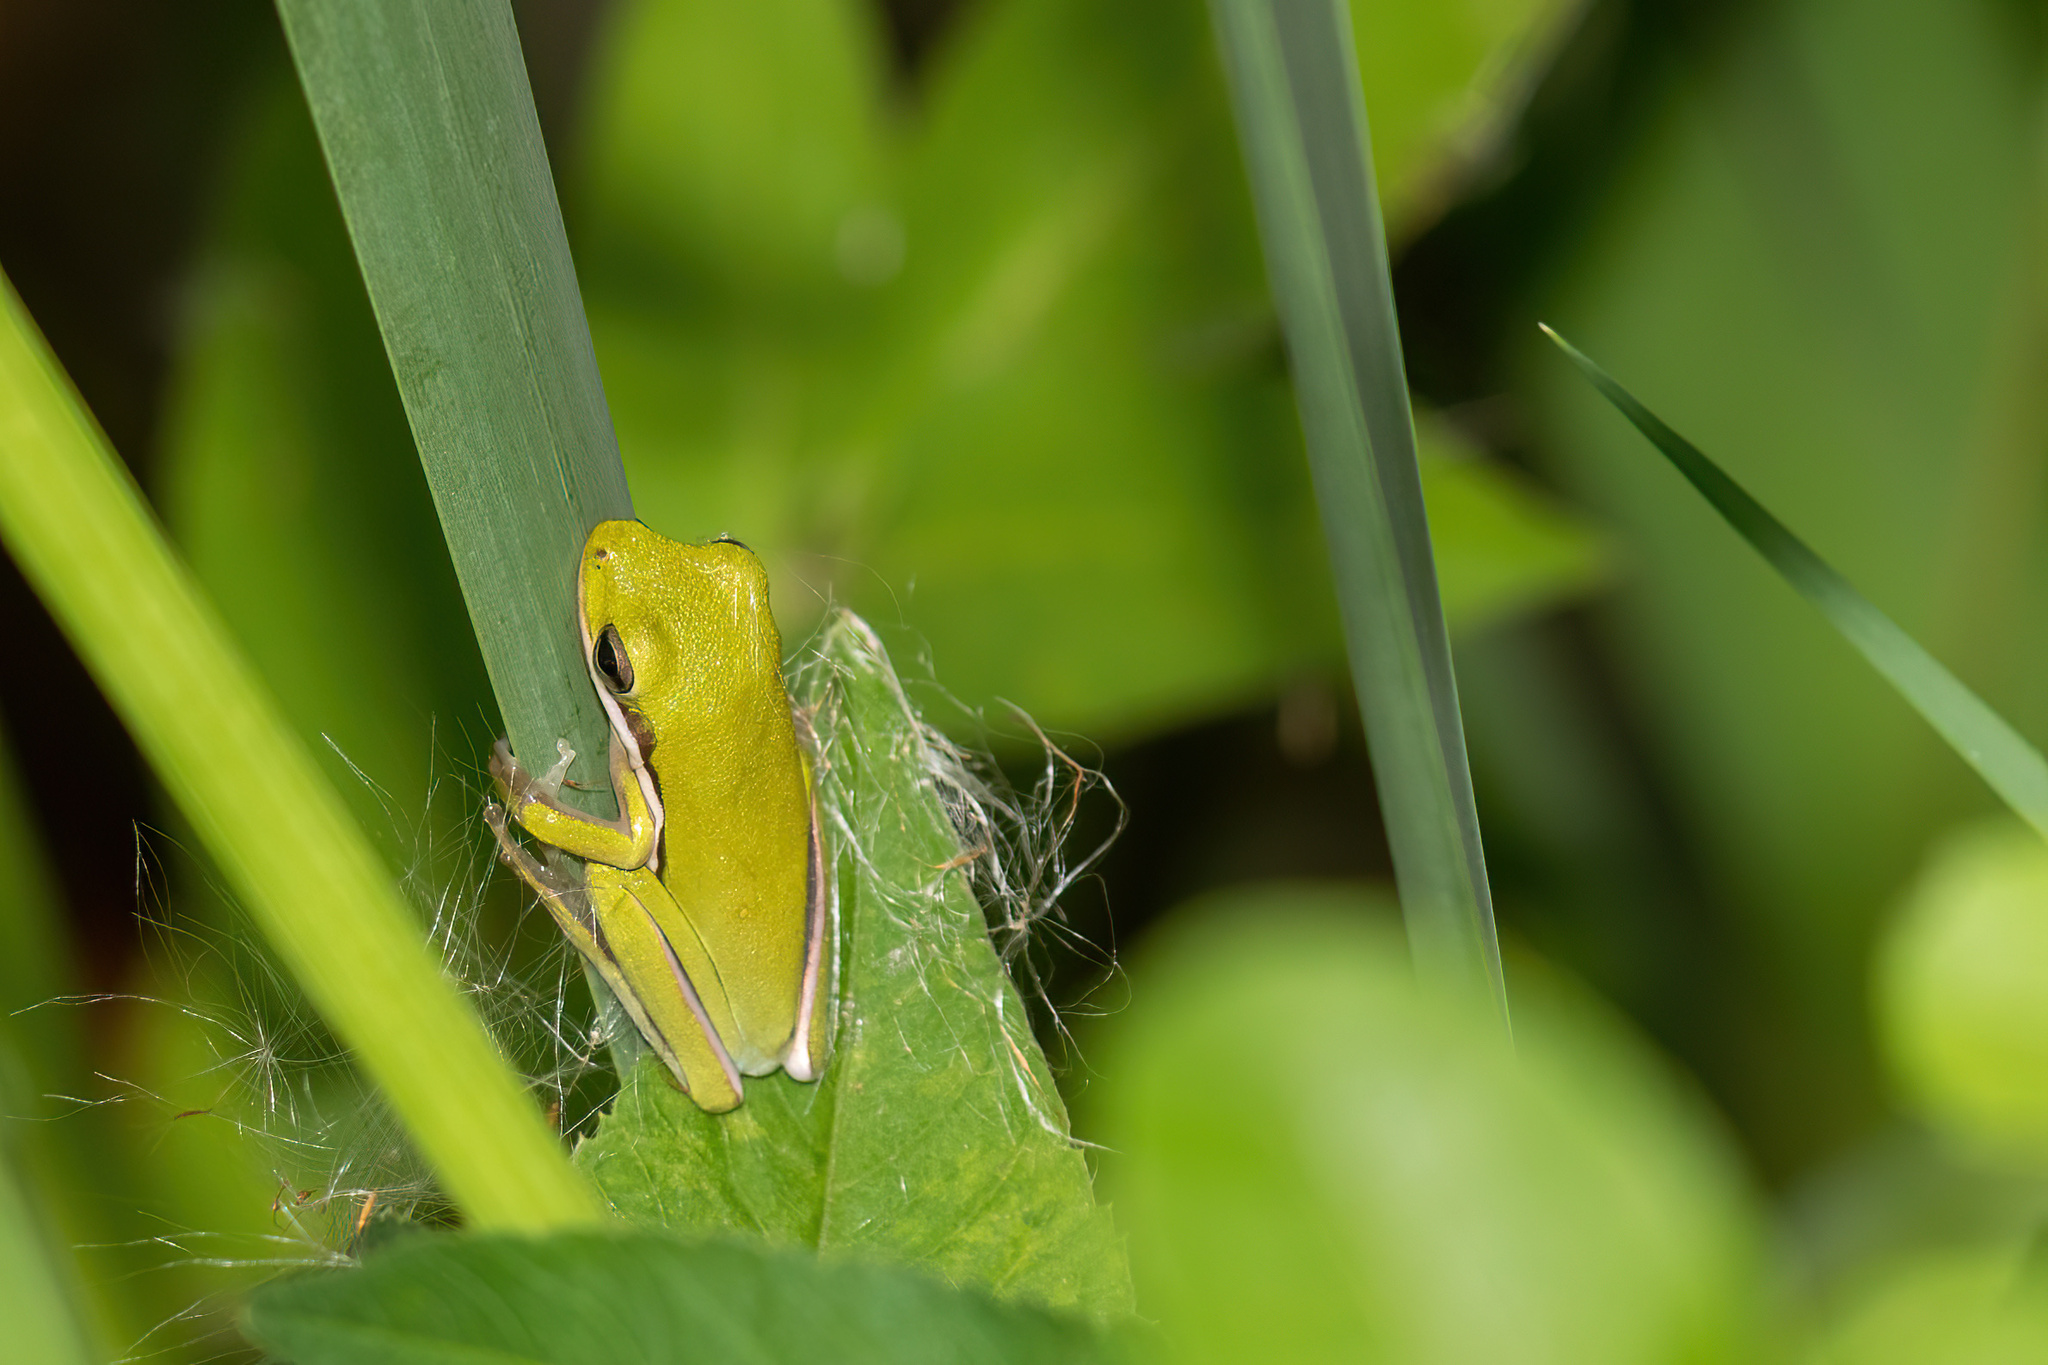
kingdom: Animalia
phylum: Chordata
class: Amphibia
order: Anura
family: Hylidae
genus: Dryophytes
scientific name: Dryophytes cinereus
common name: Green treefrog
